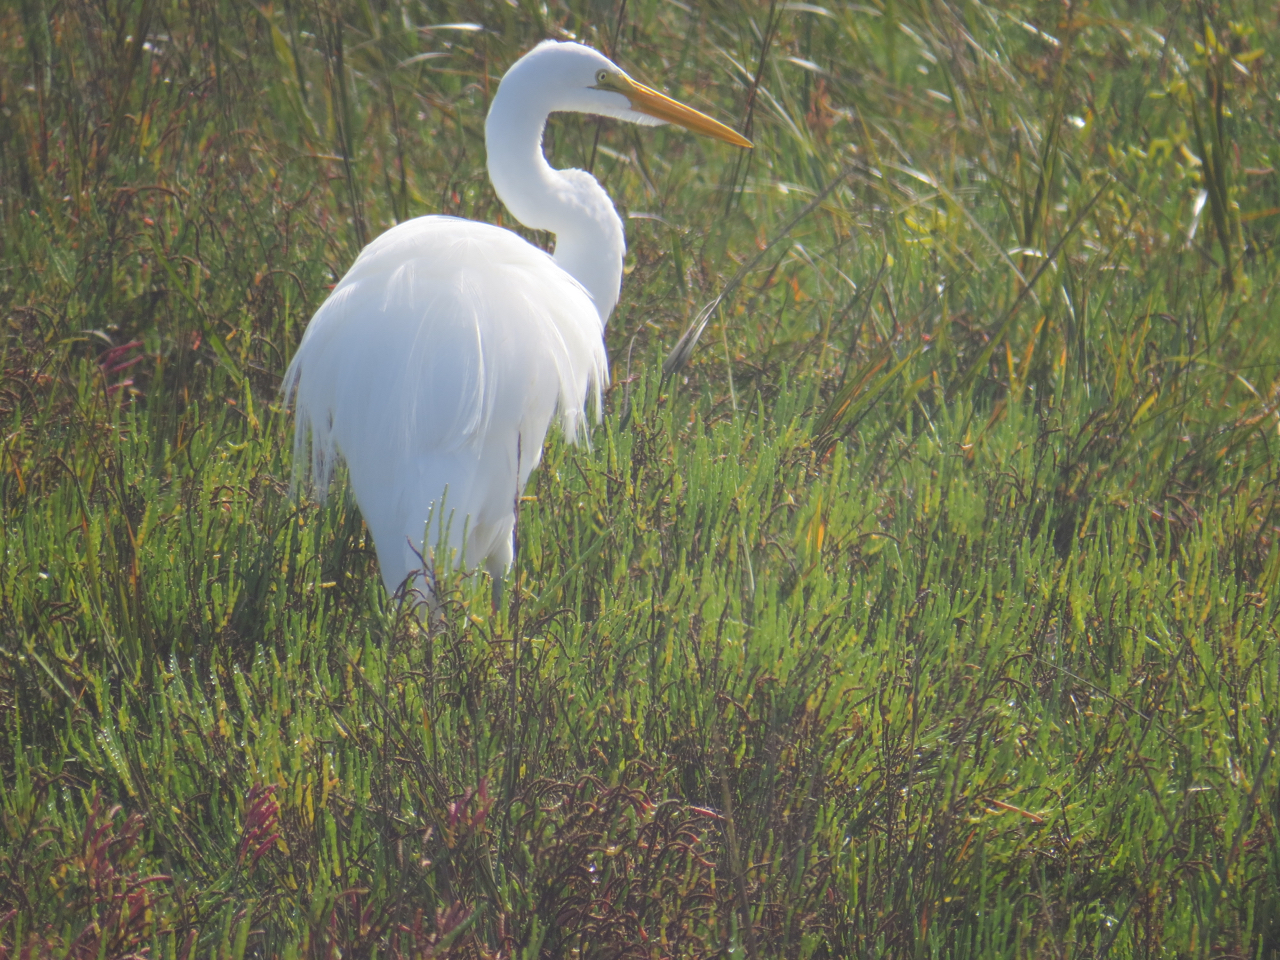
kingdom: Animalia
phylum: Chordata
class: Aves
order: Pelecaniformes
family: Ardeidae
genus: Ardea
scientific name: Ardea alba
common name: Great egret
